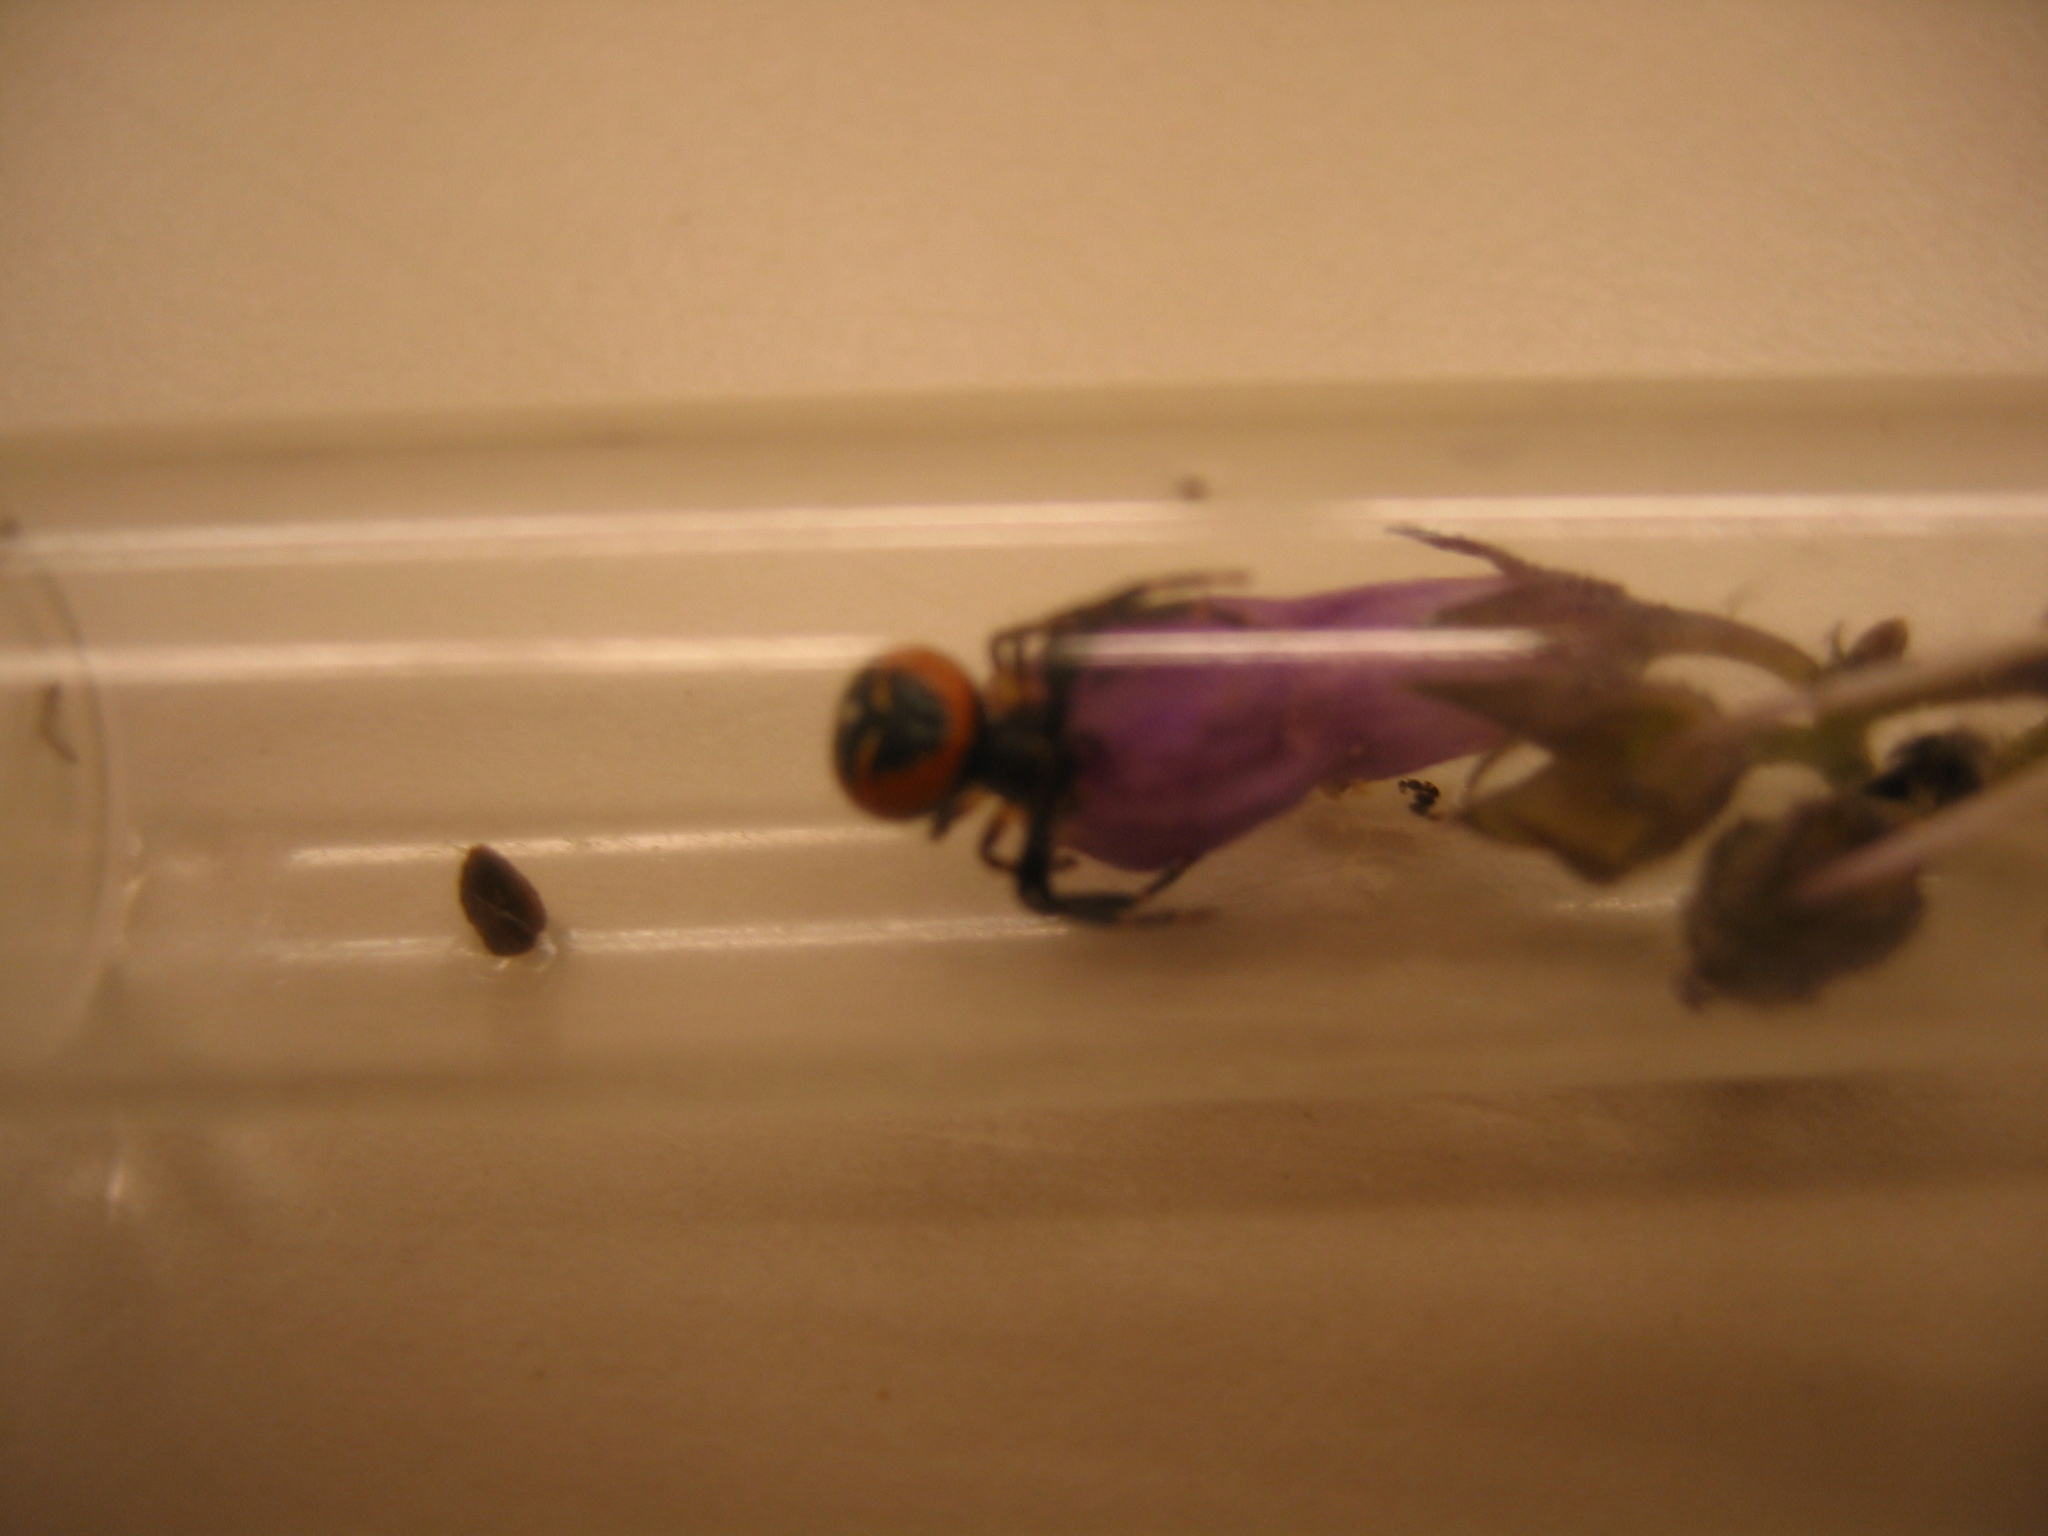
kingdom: Animalia
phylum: Arthropoda
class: Arachnida
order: Araneae
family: Thomisidae
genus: Synema
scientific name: Synema globosum
